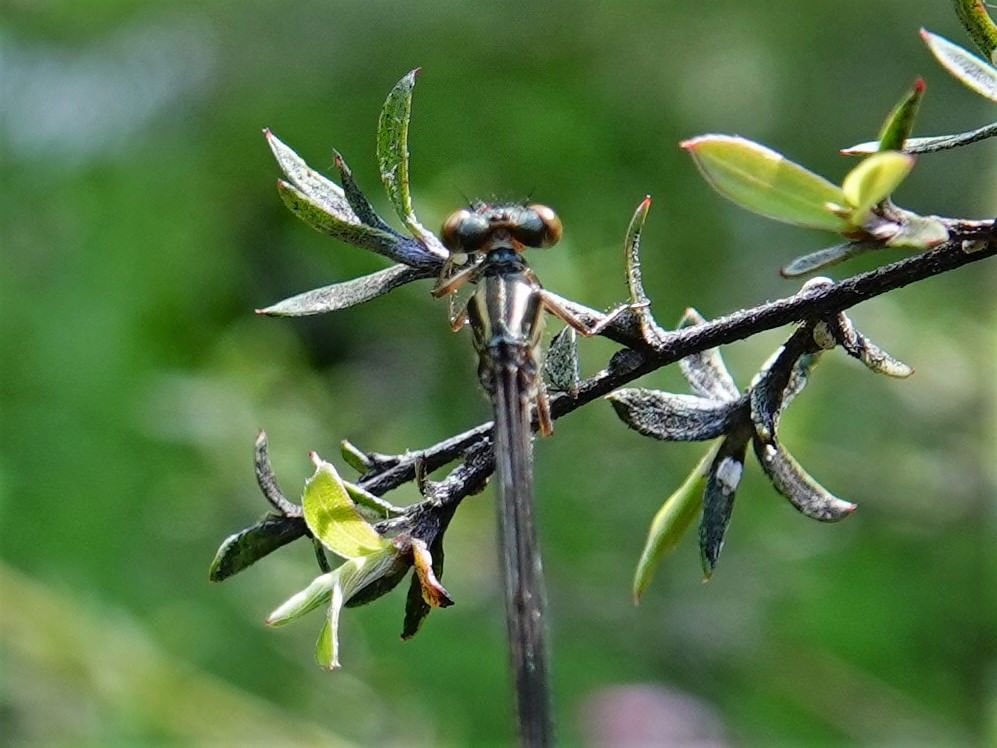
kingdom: Animalia
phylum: Arthropoda
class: Insecta
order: Odonata
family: Coenagrionidae
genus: Xanthocnemis
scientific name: Xanthocnemis zealandica
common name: Common redcoat damselfly
